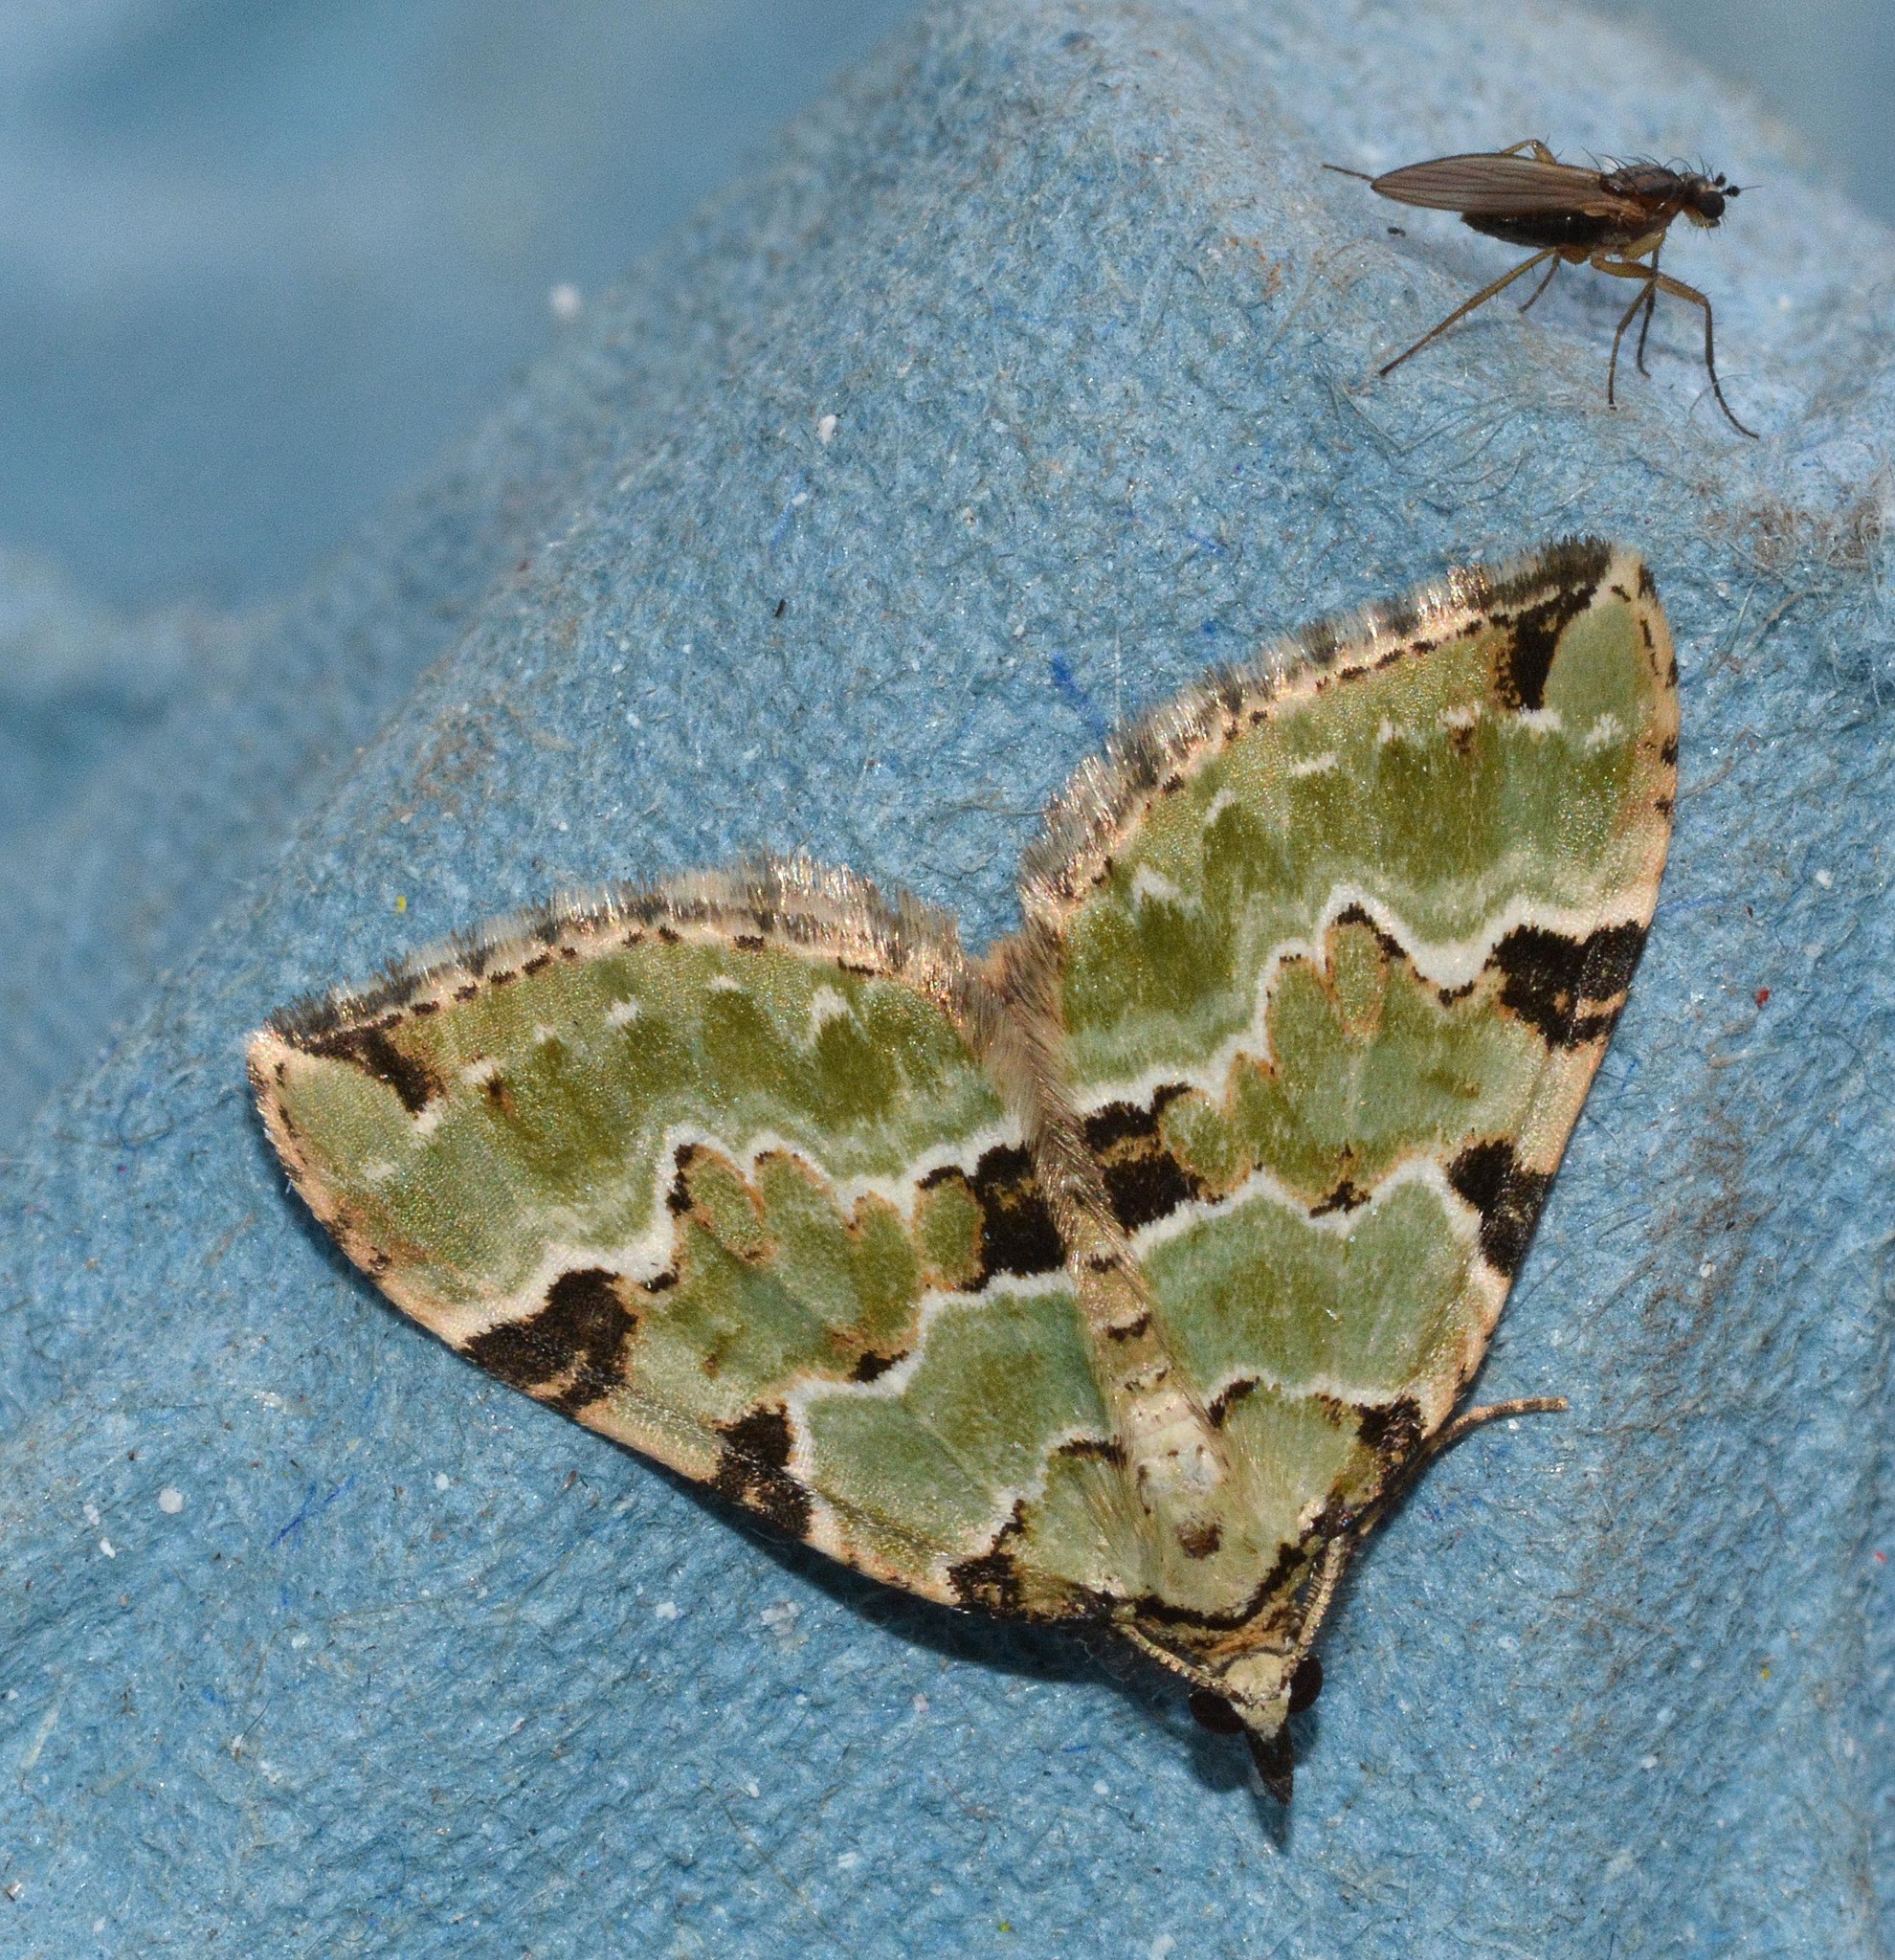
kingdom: Animalia
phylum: Arthropoda
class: Insecta
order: Lepidoptera
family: Geometridae
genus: Colostygia
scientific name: Colostygia pectinataria
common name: Green carpet
